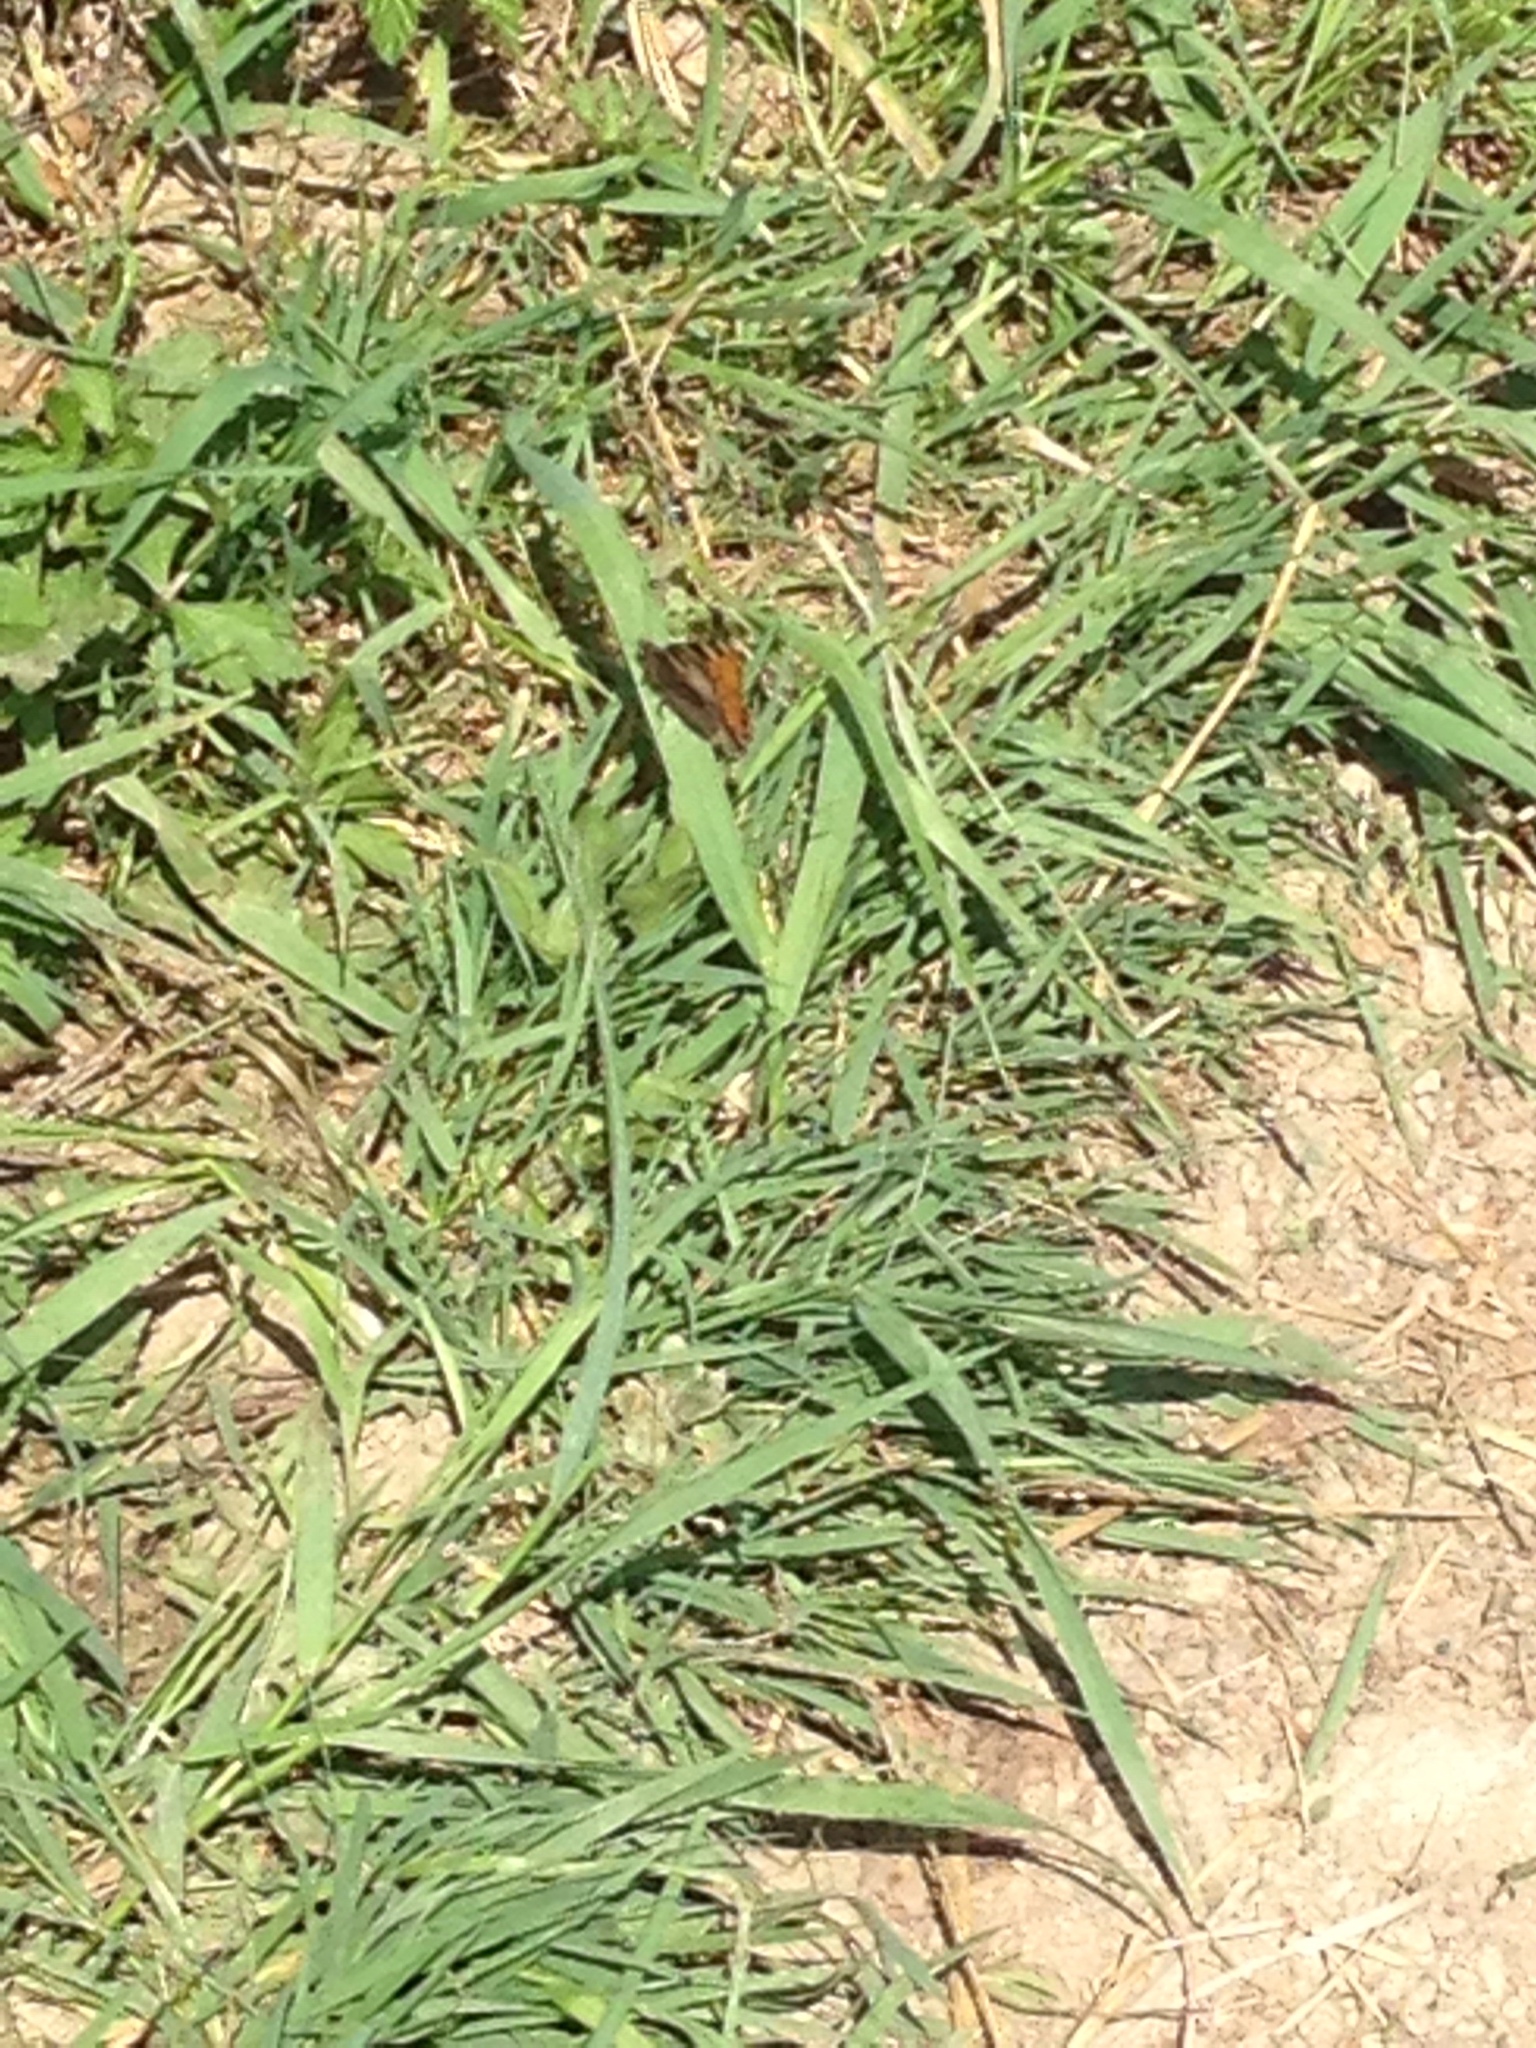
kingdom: Animalia
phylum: Arthropoda
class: Insecta
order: Lepidoptera
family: Nymphalidae
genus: Aglais
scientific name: Aglais urticae
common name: Small tortoiseshell
